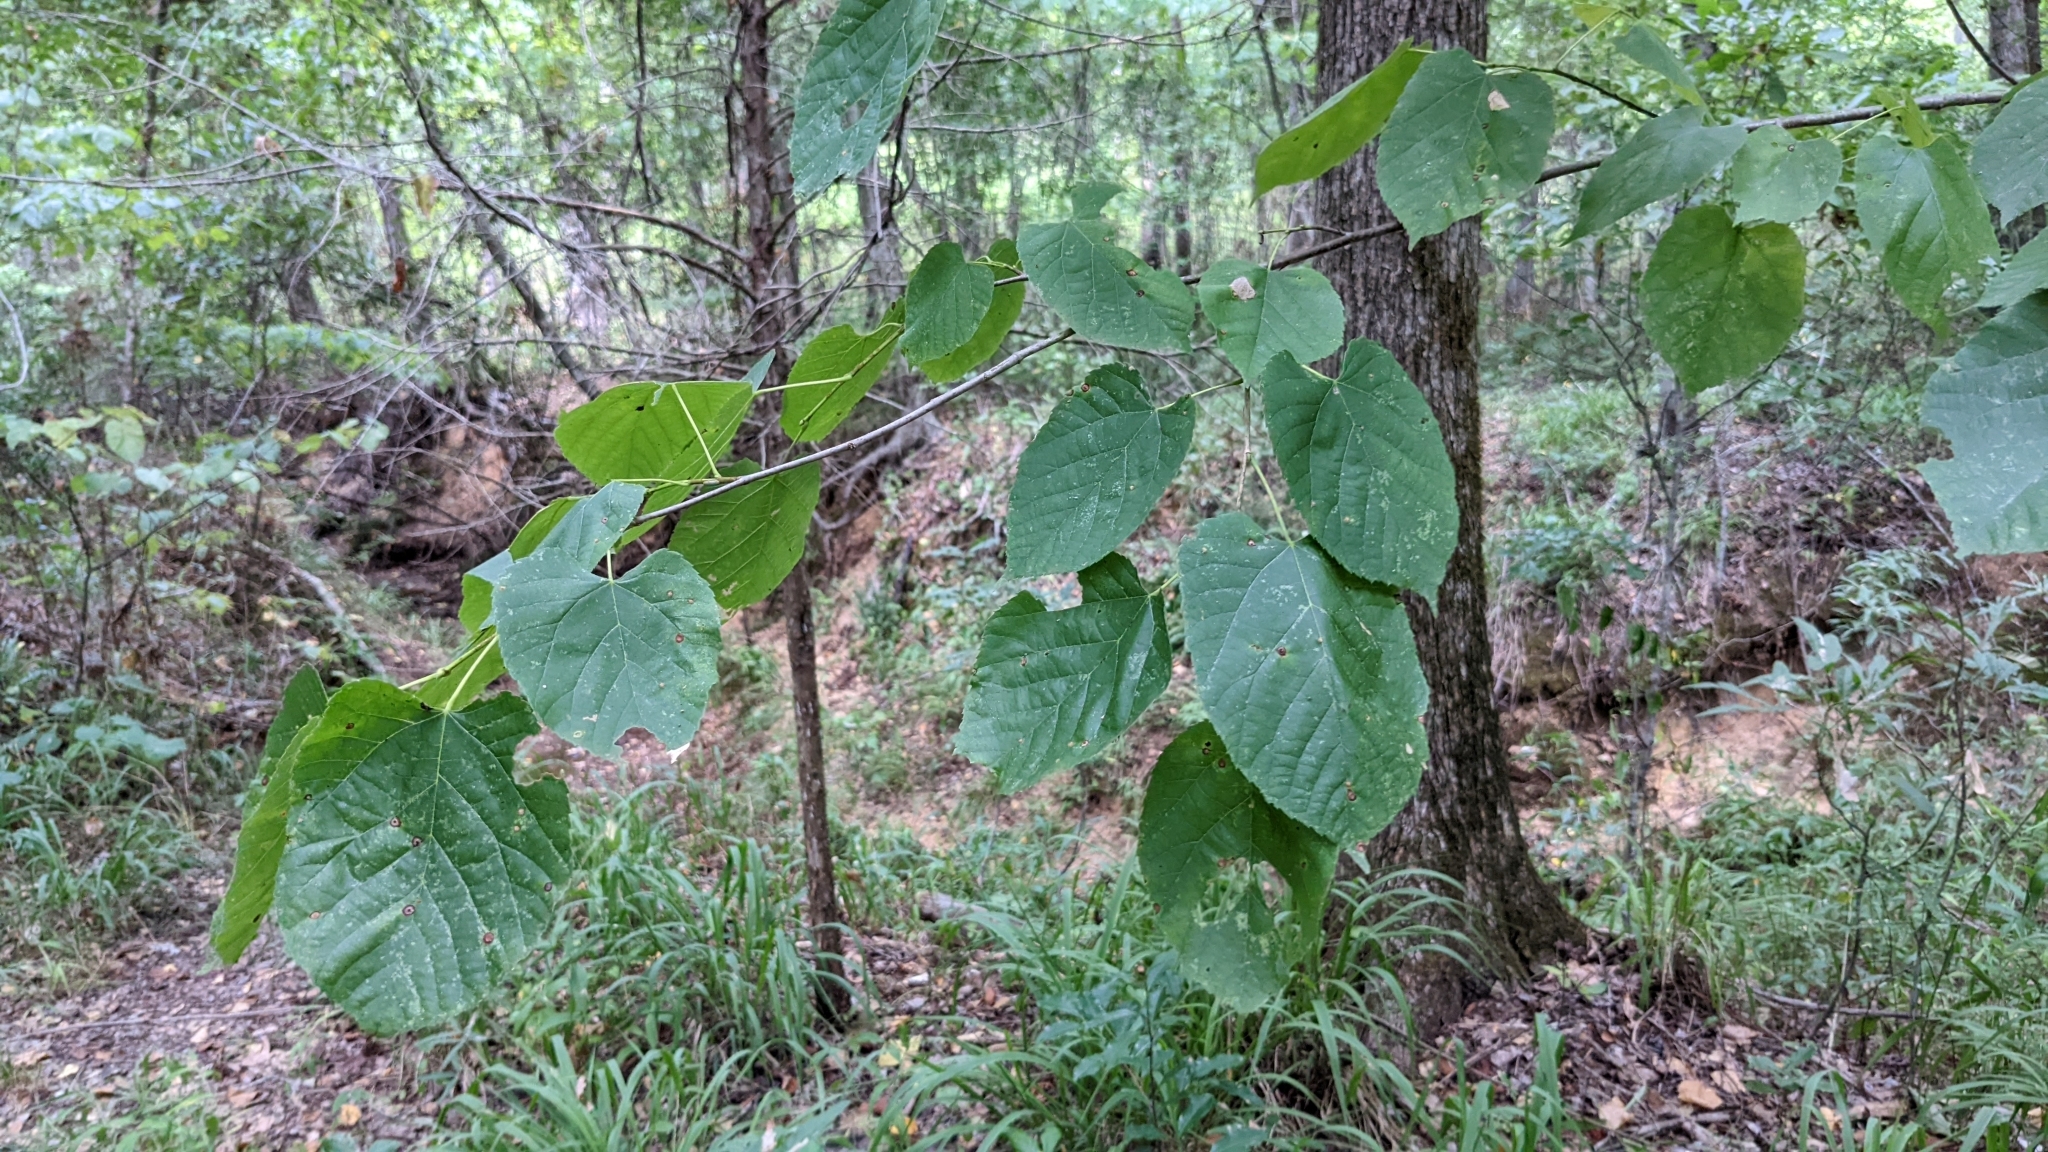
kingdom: Plantae
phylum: Tracheophyta
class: Magnoliopsida
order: Malvales
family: Malvaceae
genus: Tilia
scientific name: Tilia americana
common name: Basswood
